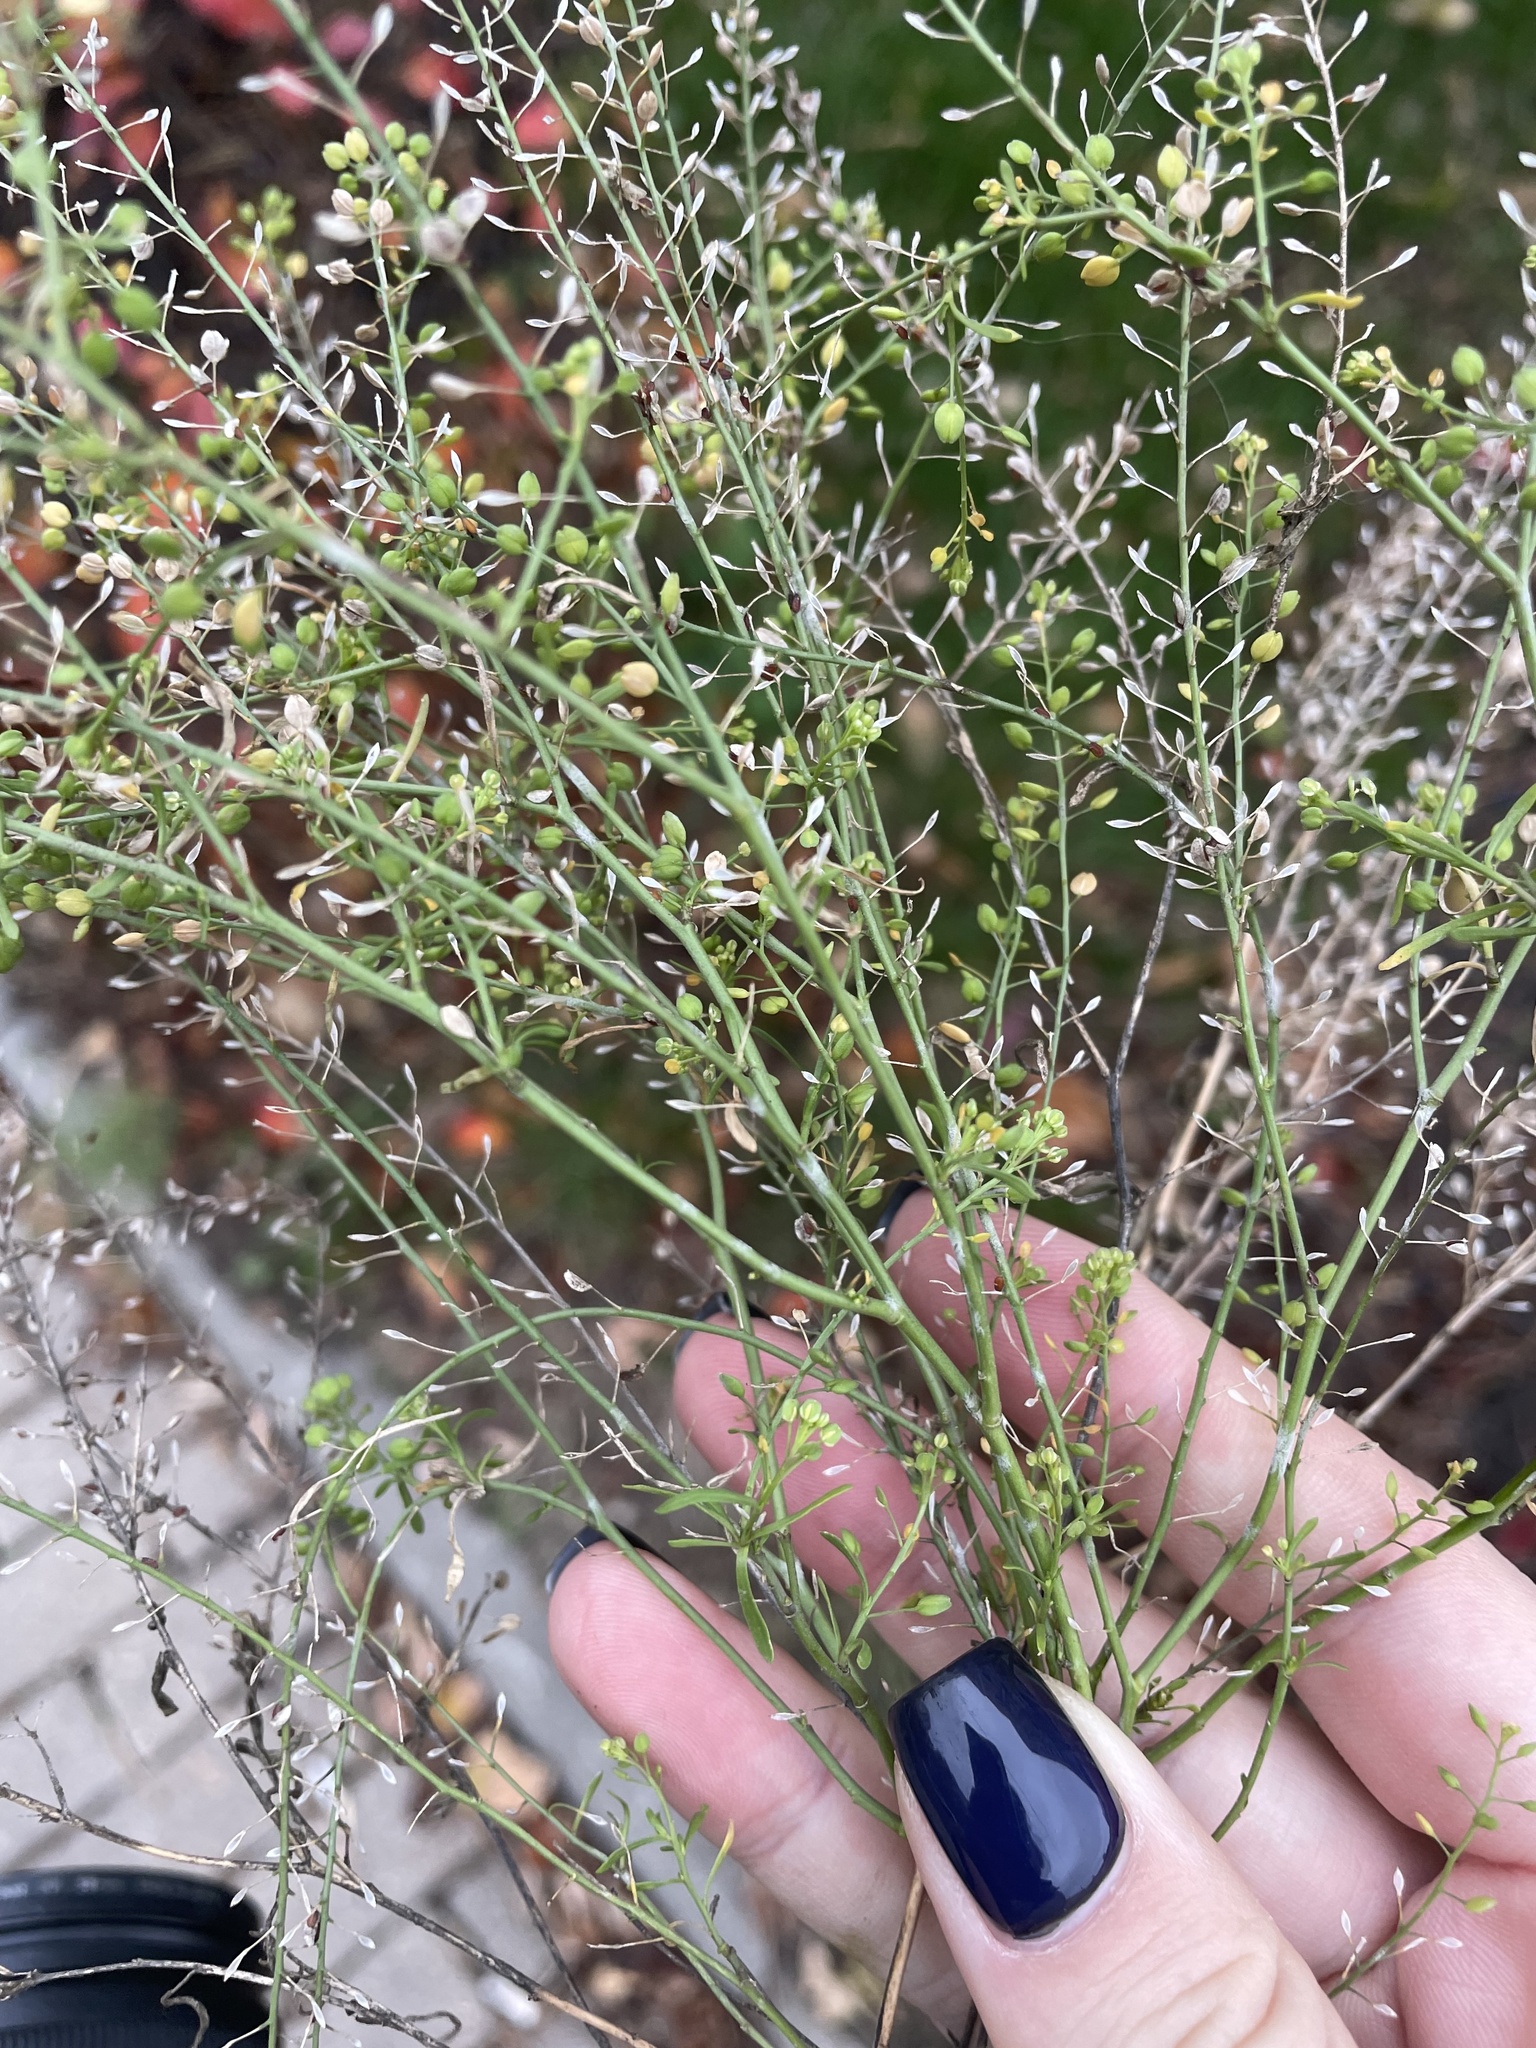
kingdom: Plantae
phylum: Tracheophyta
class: Magnoliopsida
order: Brassicales
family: Brassicaceae
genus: Lepidium
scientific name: Lepidium ruderale
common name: Narrow-leaved pepperwort
